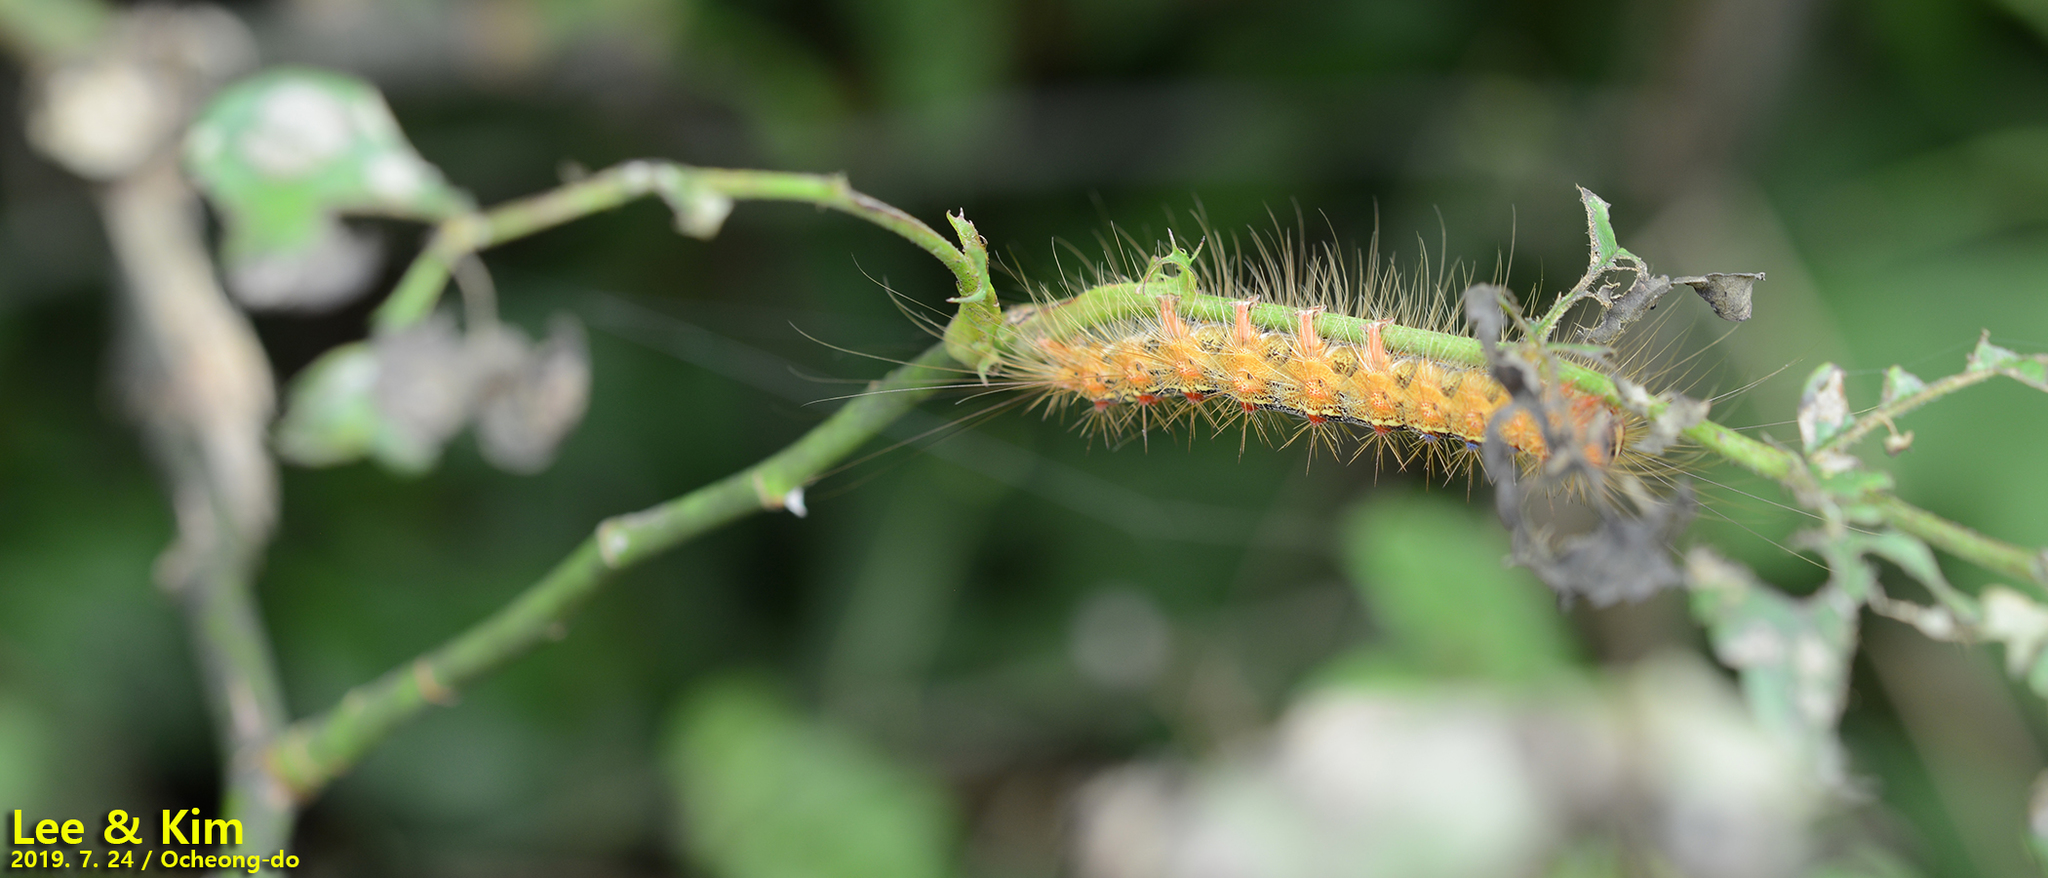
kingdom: Animalia
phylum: Arthropoda
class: Insecta
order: Lepidoptera
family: Erebidae
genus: Lymantria
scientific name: Lymantria dispar
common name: Gypsy moth
